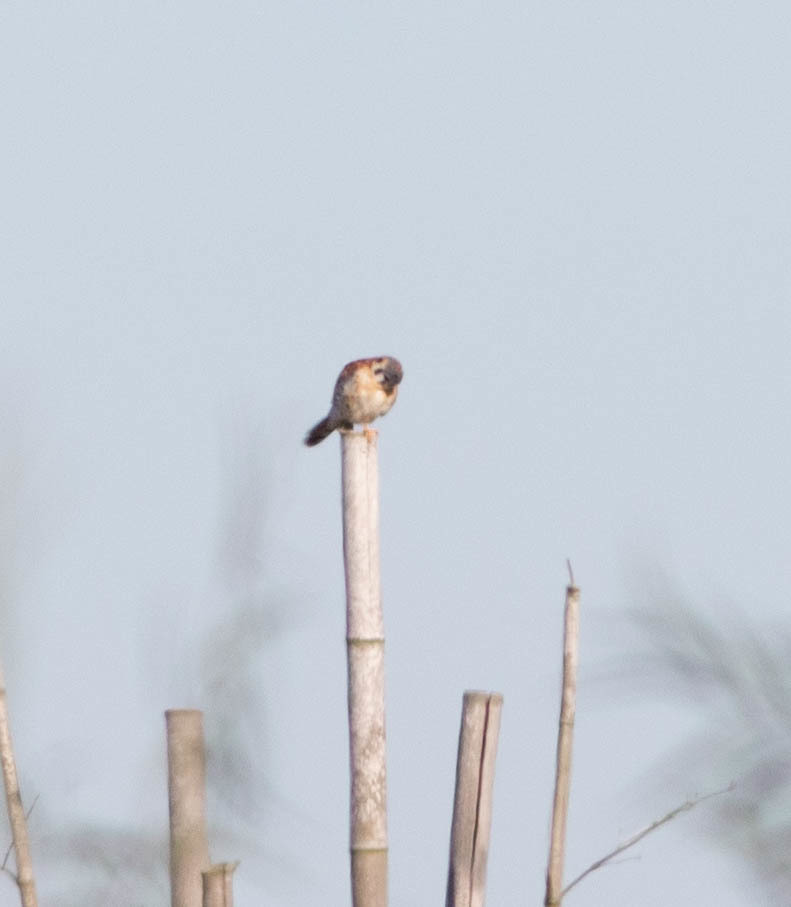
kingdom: Animalia
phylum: Chordata
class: Aves
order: Falconiformes
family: Falconidae
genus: Falco
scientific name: Falco sparverius
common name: American kestrel
